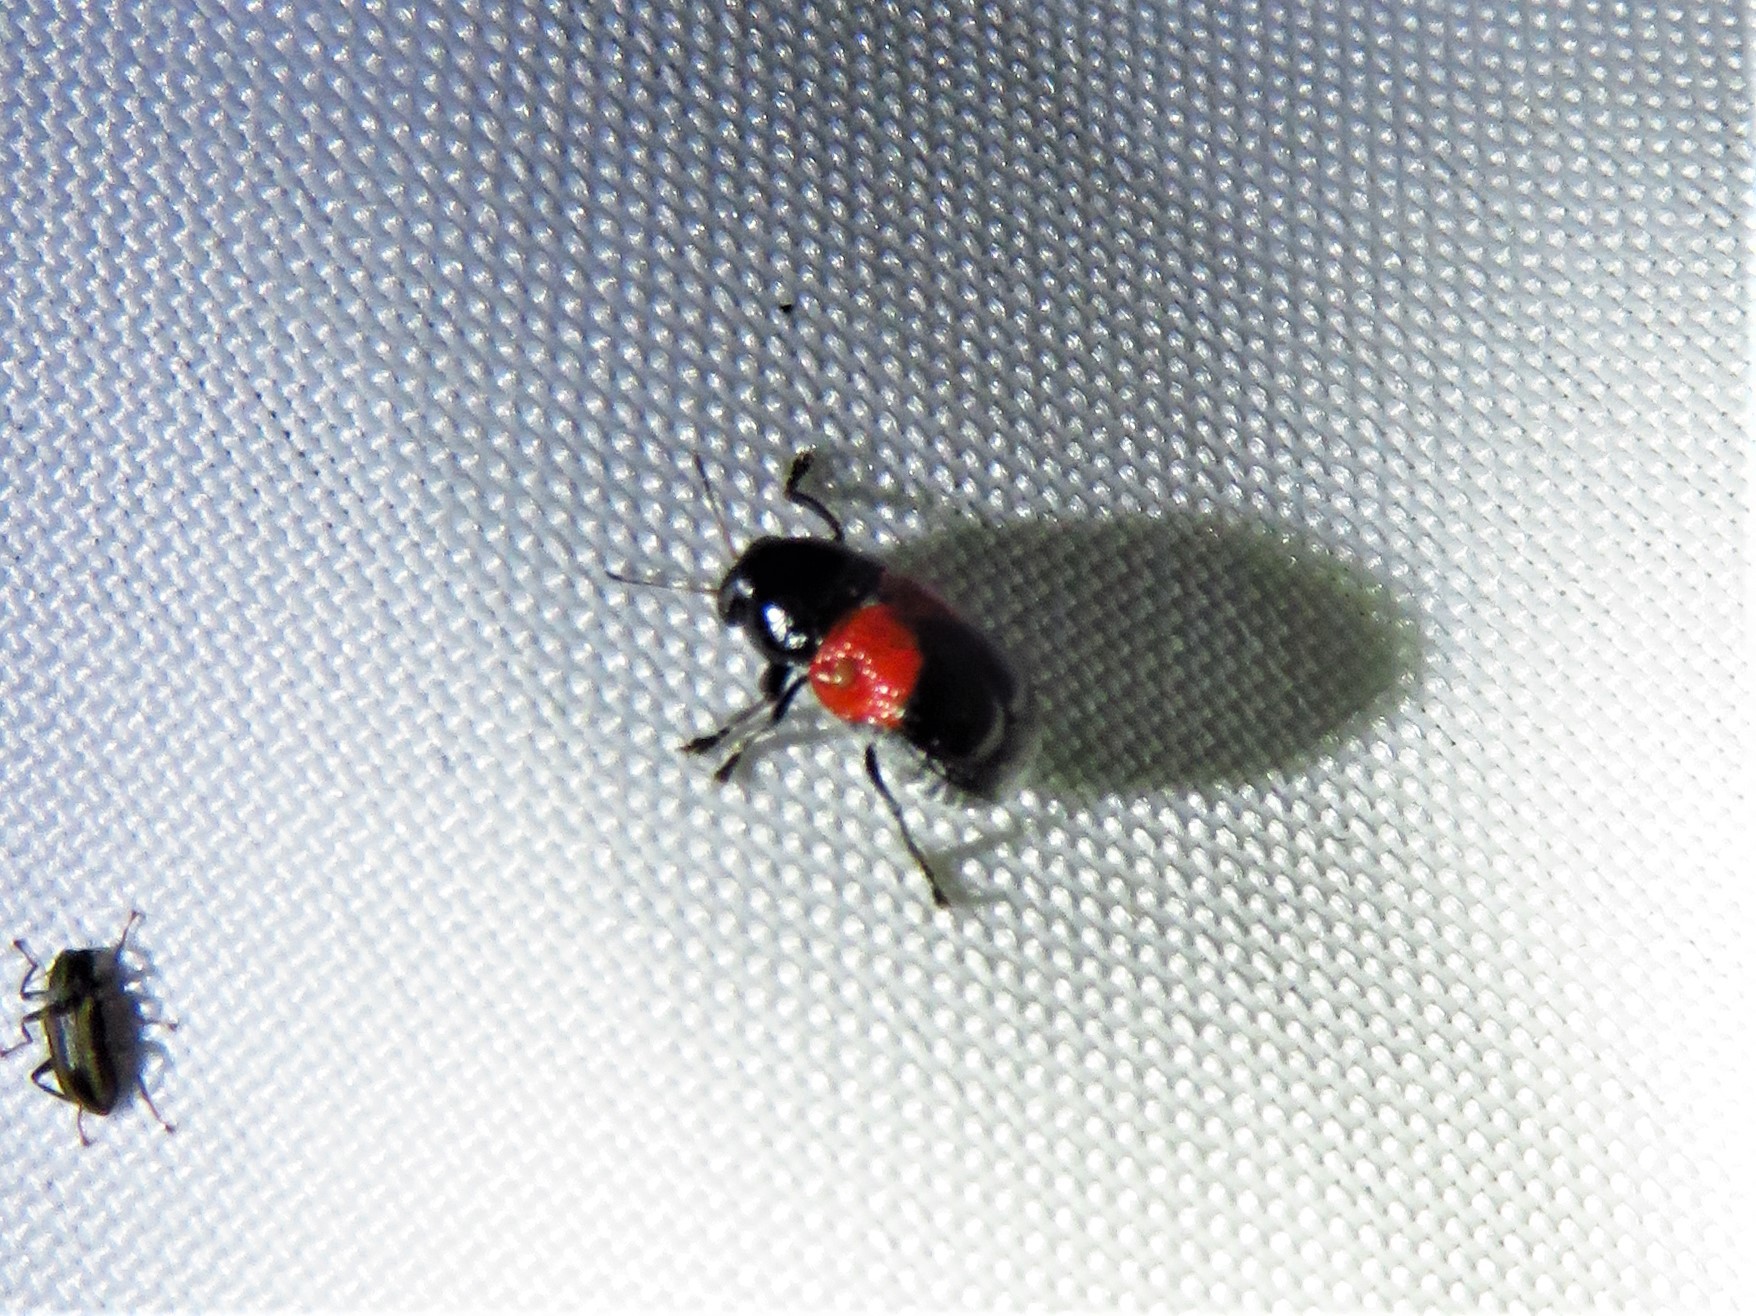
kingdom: Animalia
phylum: Arthropoda
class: Insecta
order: Coleoptera
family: Chrysomelidae
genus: Scelolyperus
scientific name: Scelolyperus lecontii
